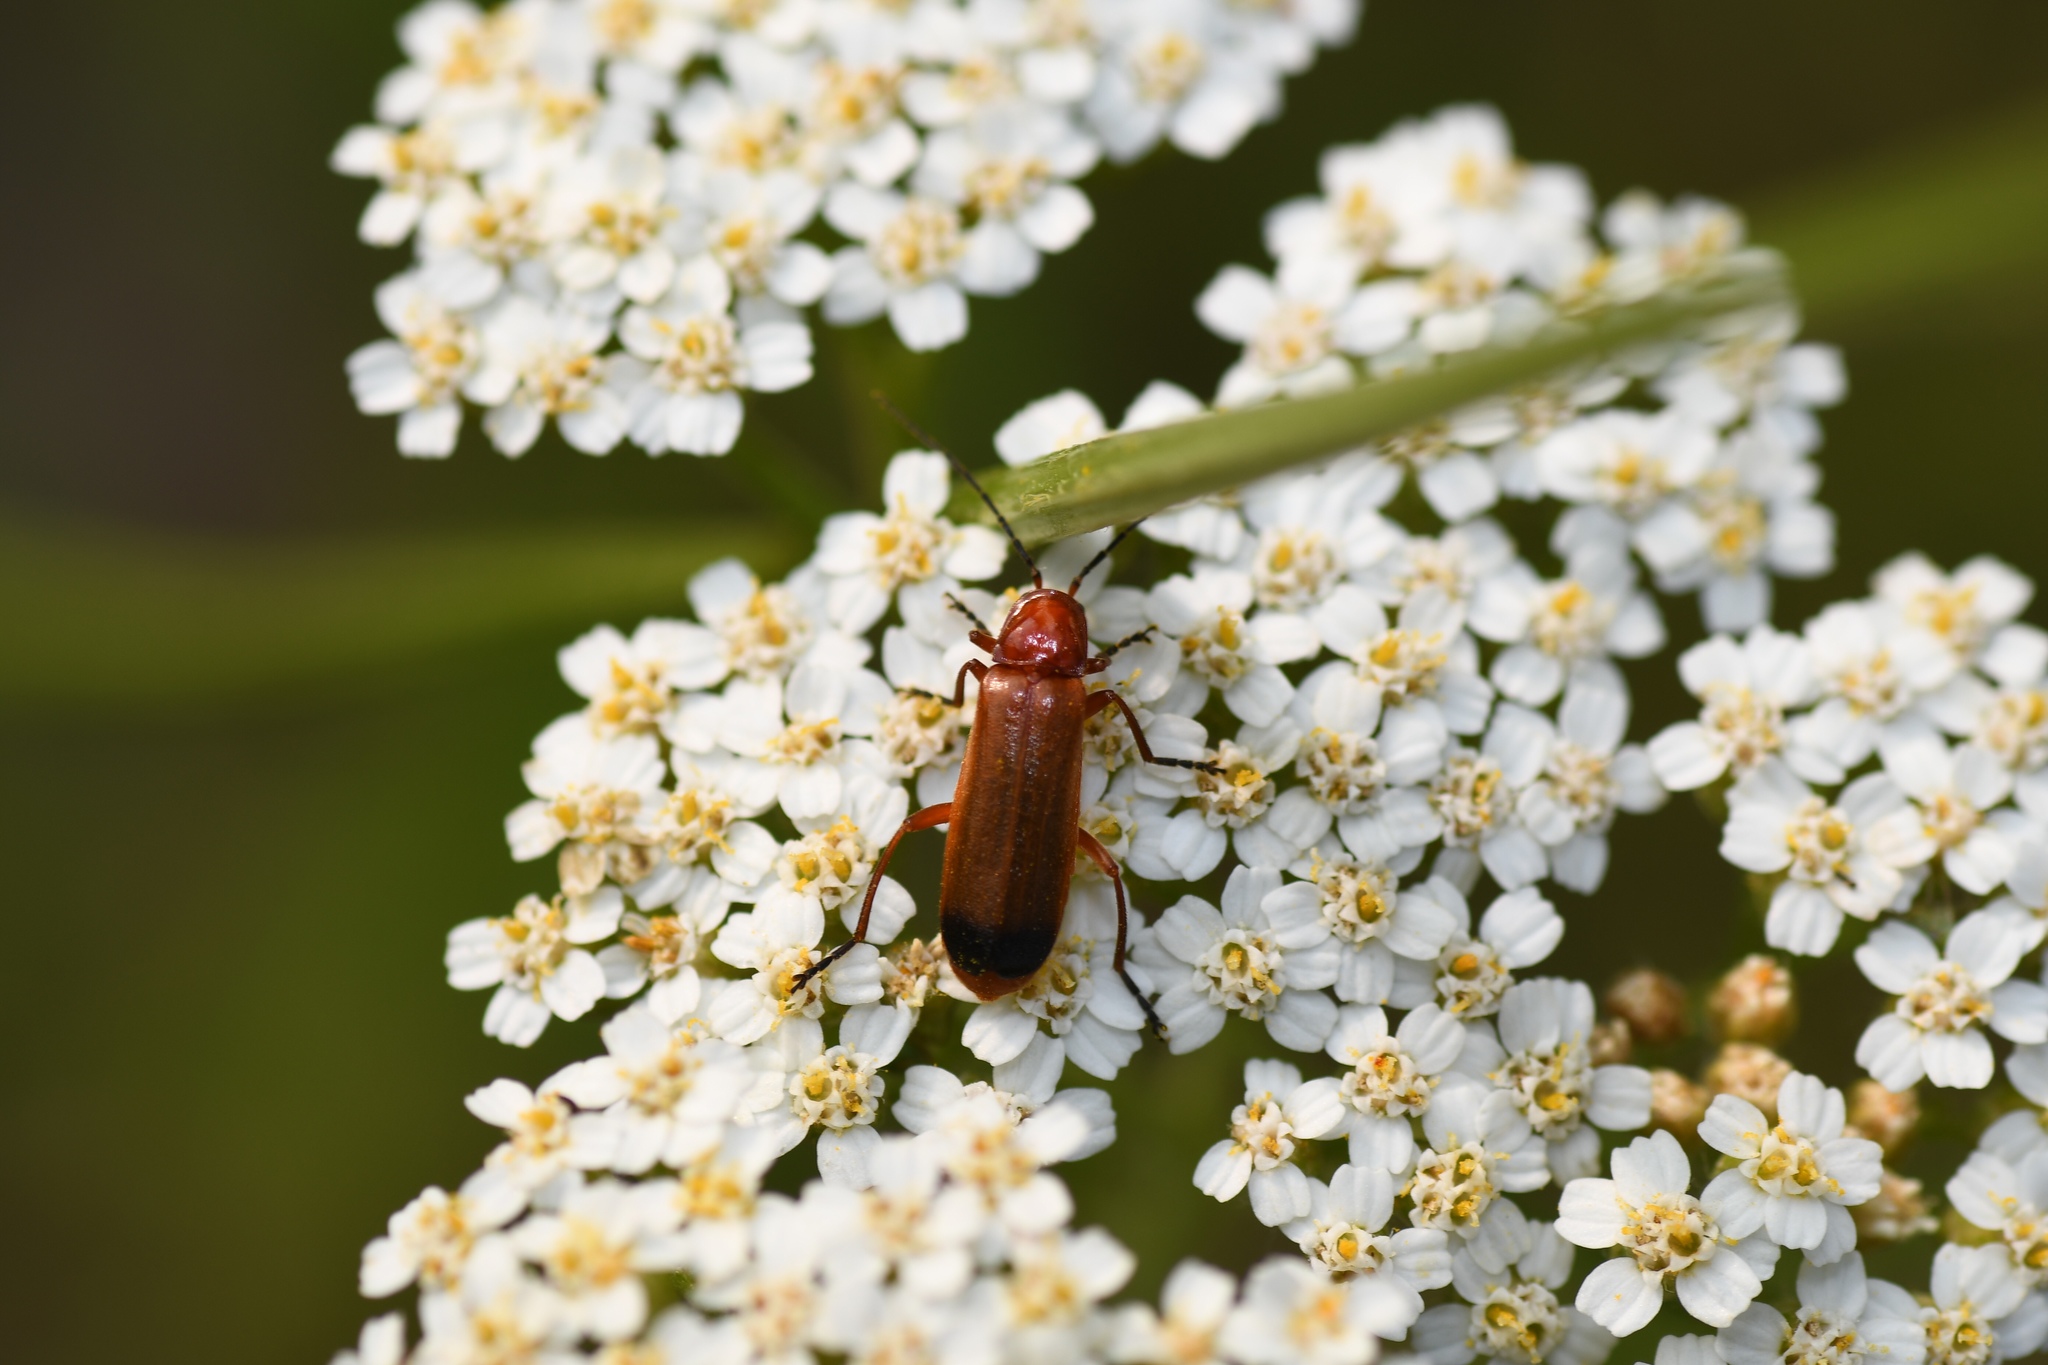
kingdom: Animalia
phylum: Arthropoda
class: Insecta
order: Coleoptera
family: Cantharidae
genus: Rhagonycha
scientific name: Rhagonycha fulva
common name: Common red soldier beetle
